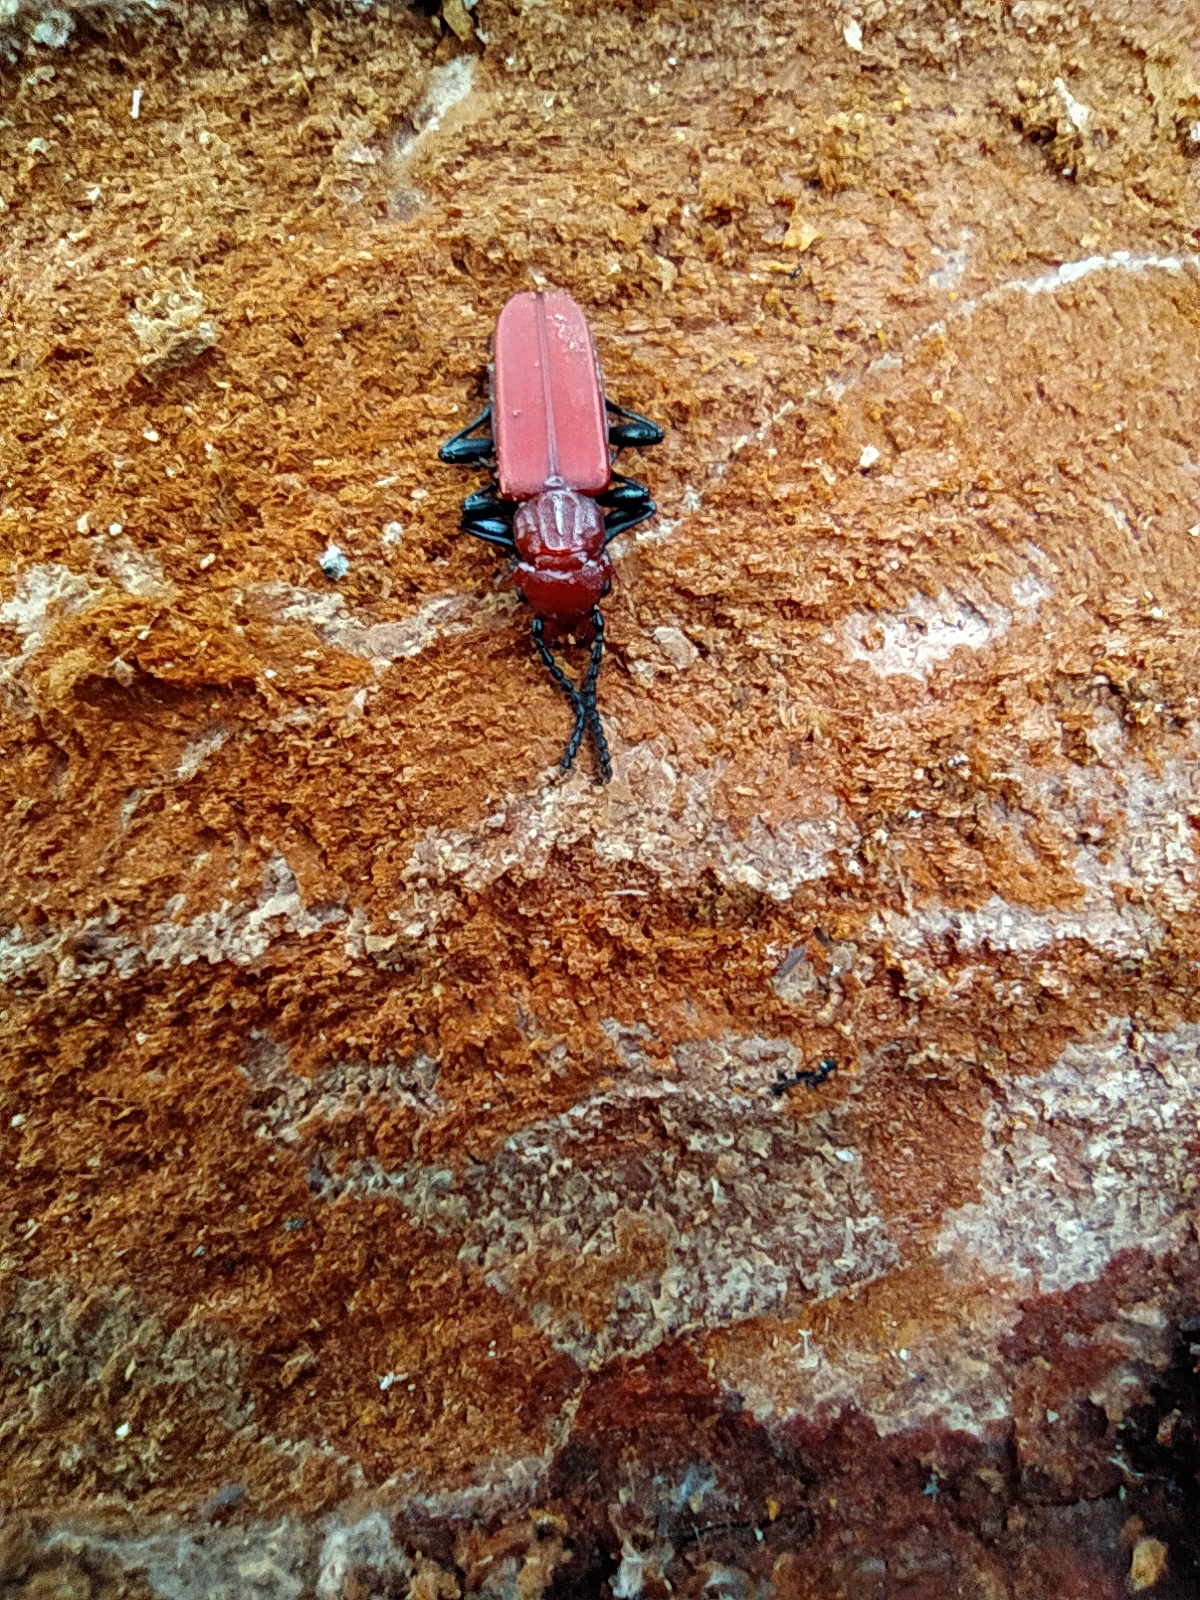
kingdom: Animalia
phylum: Arthropoda
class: Insecta
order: Coleoptera
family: Cucujidae
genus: Cucujus
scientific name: Cucujus haematodes
